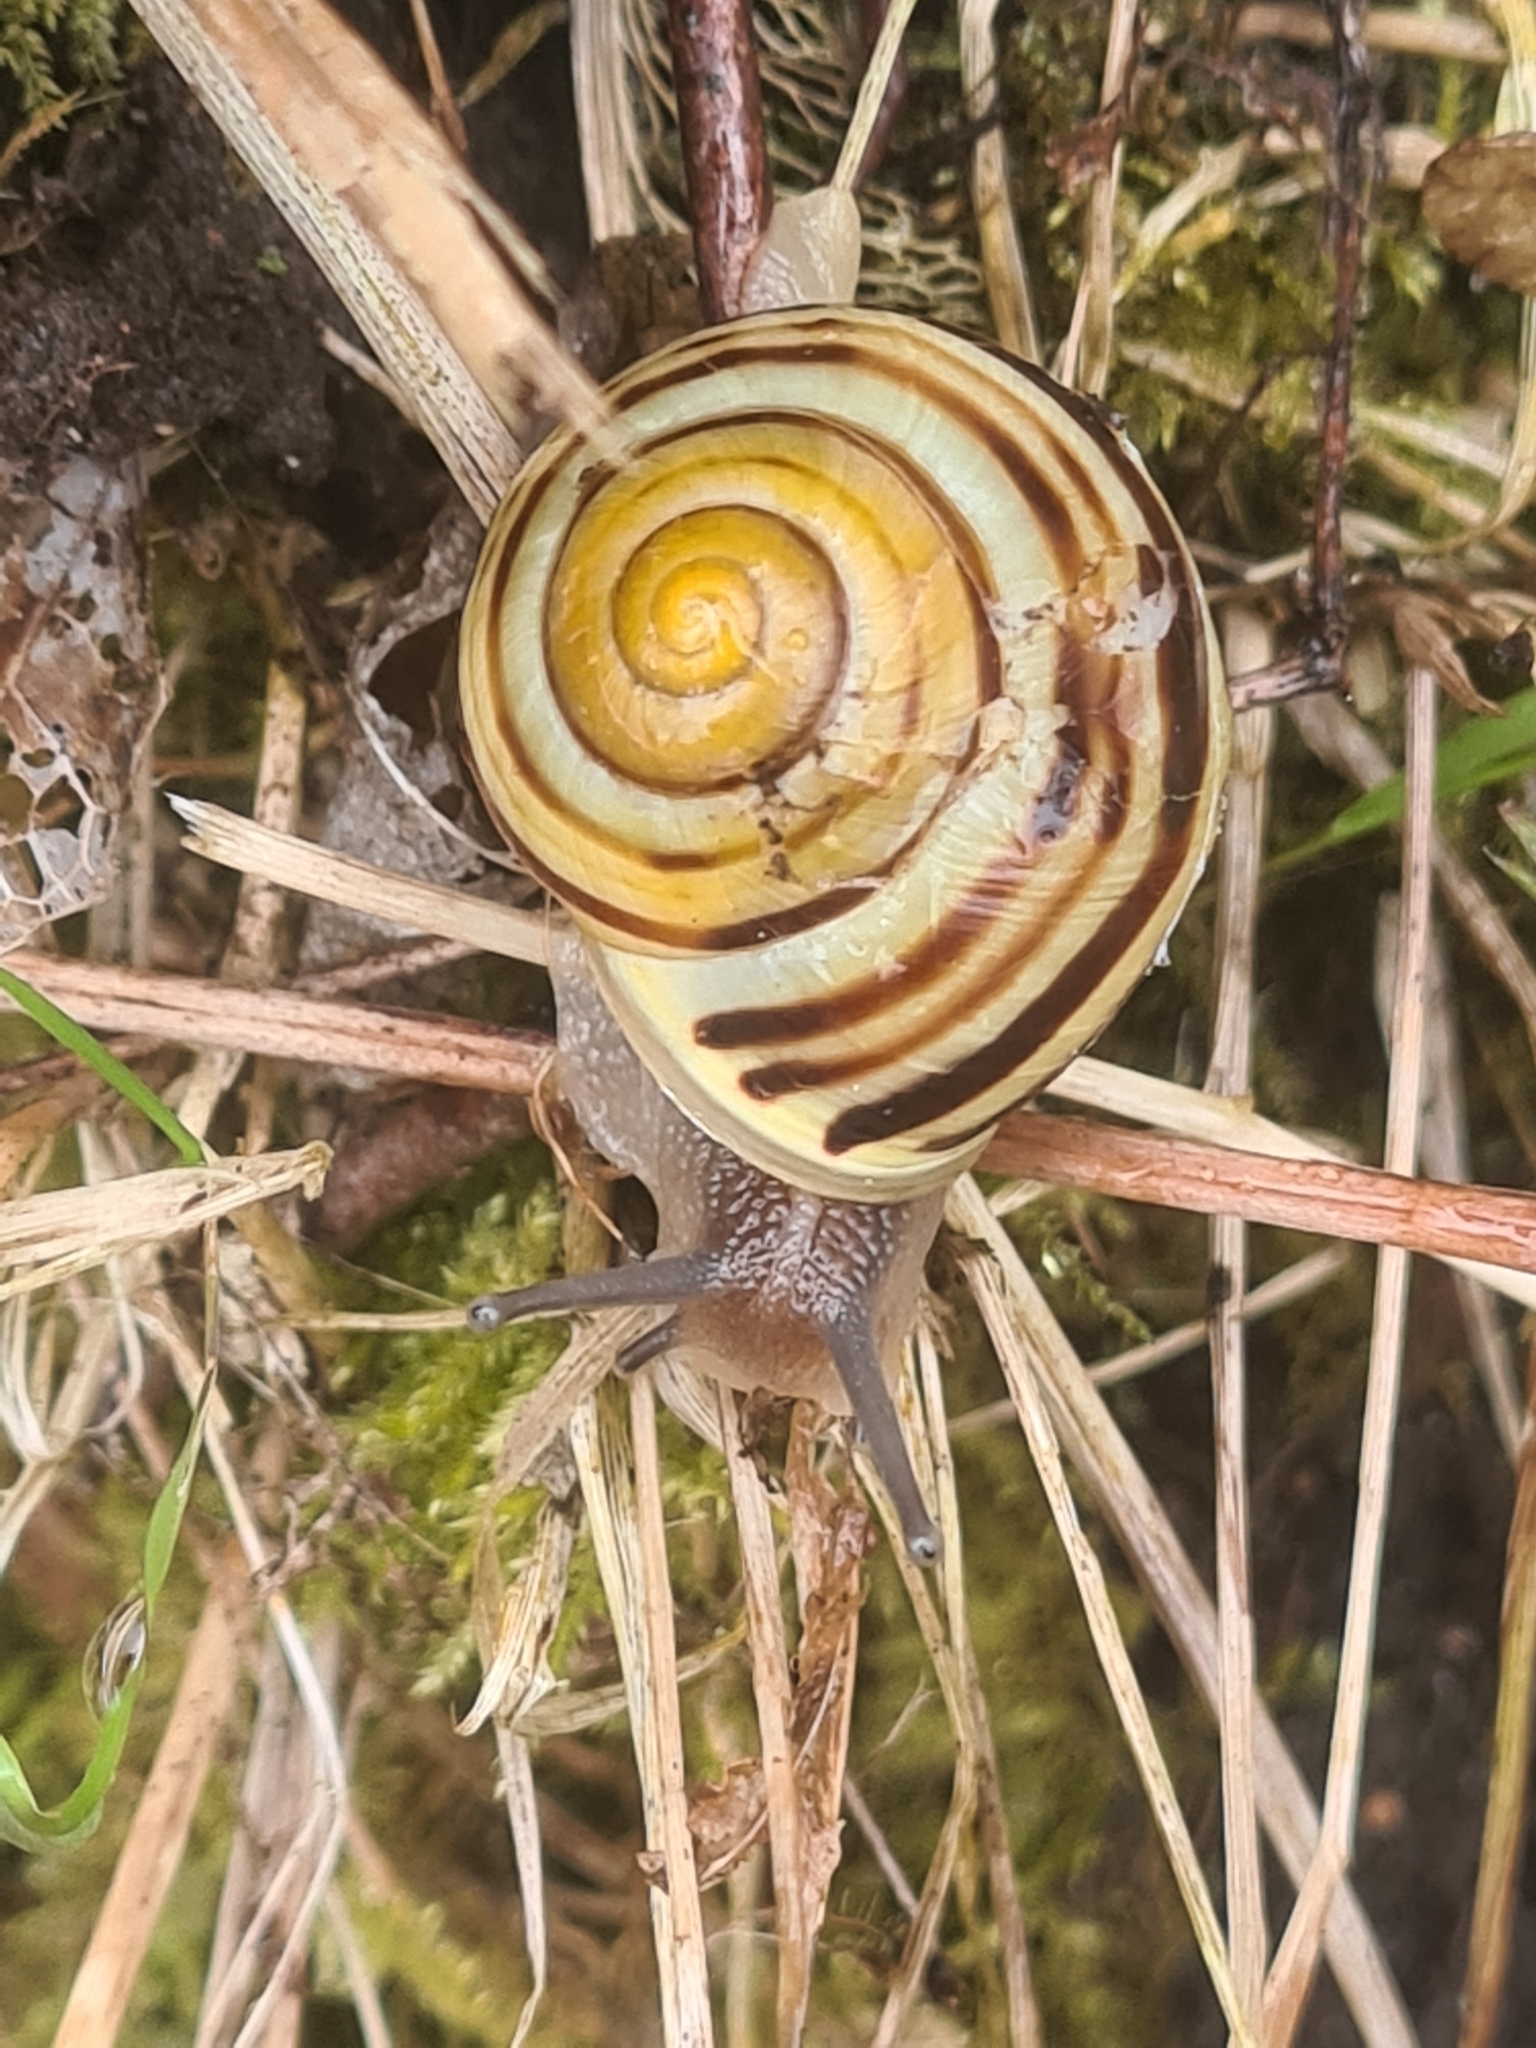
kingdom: Animalia
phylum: Mollusca
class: Gastropoda
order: Stylommatophora
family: Helicidae
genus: Cepaea
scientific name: Cepaea hortensis
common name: White-lip gardensnail
